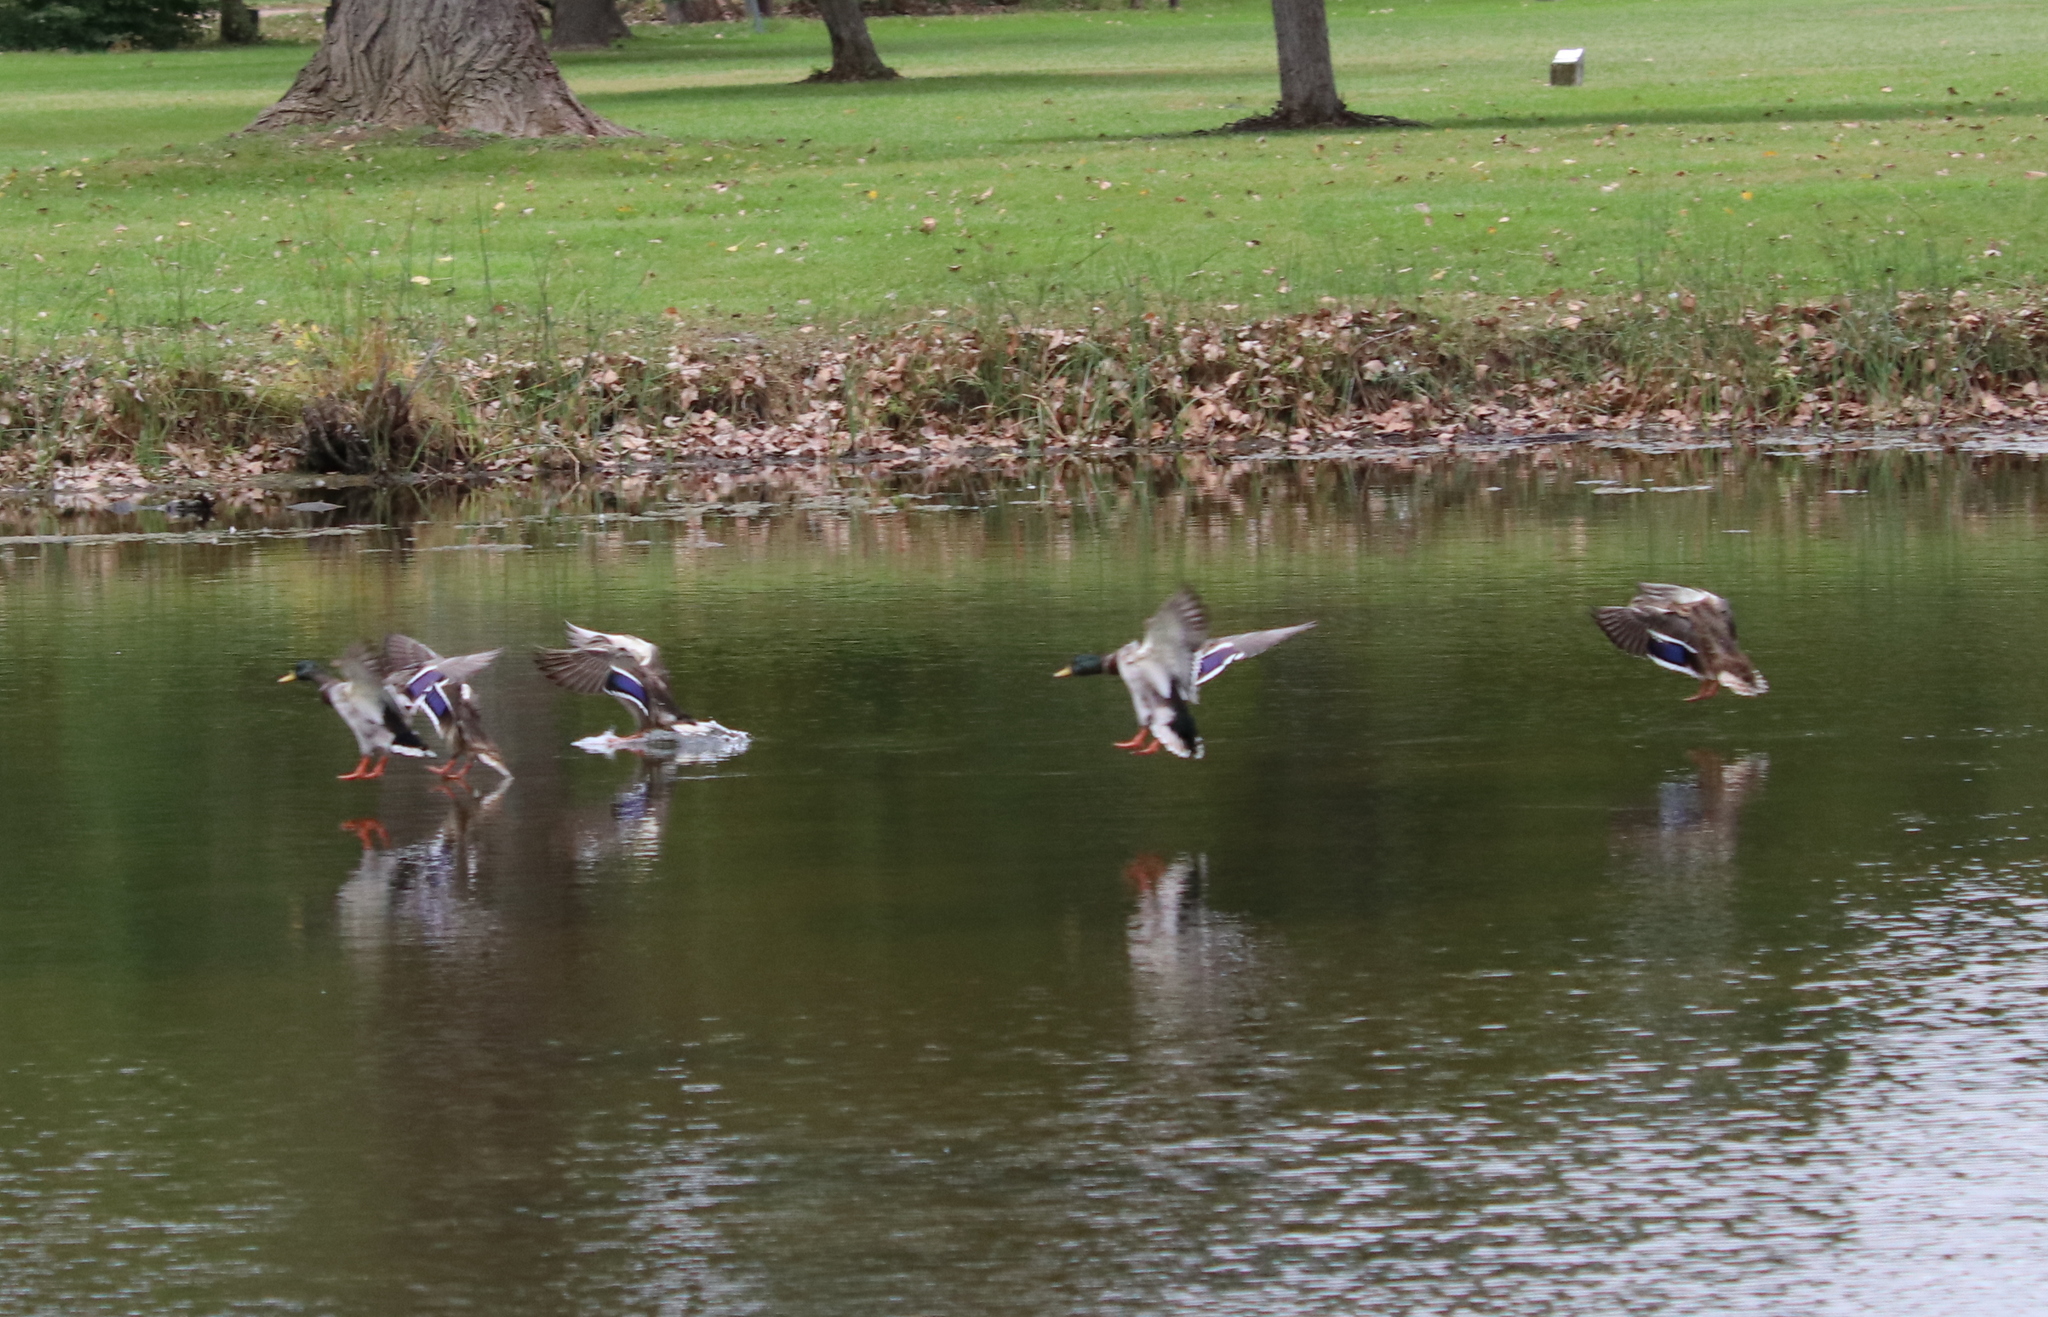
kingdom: Animalia
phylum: Chordata
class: Aves
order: Anseriformes
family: Anatidae
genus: Anas
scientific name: Anas platyrhynchos
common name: Mallard
